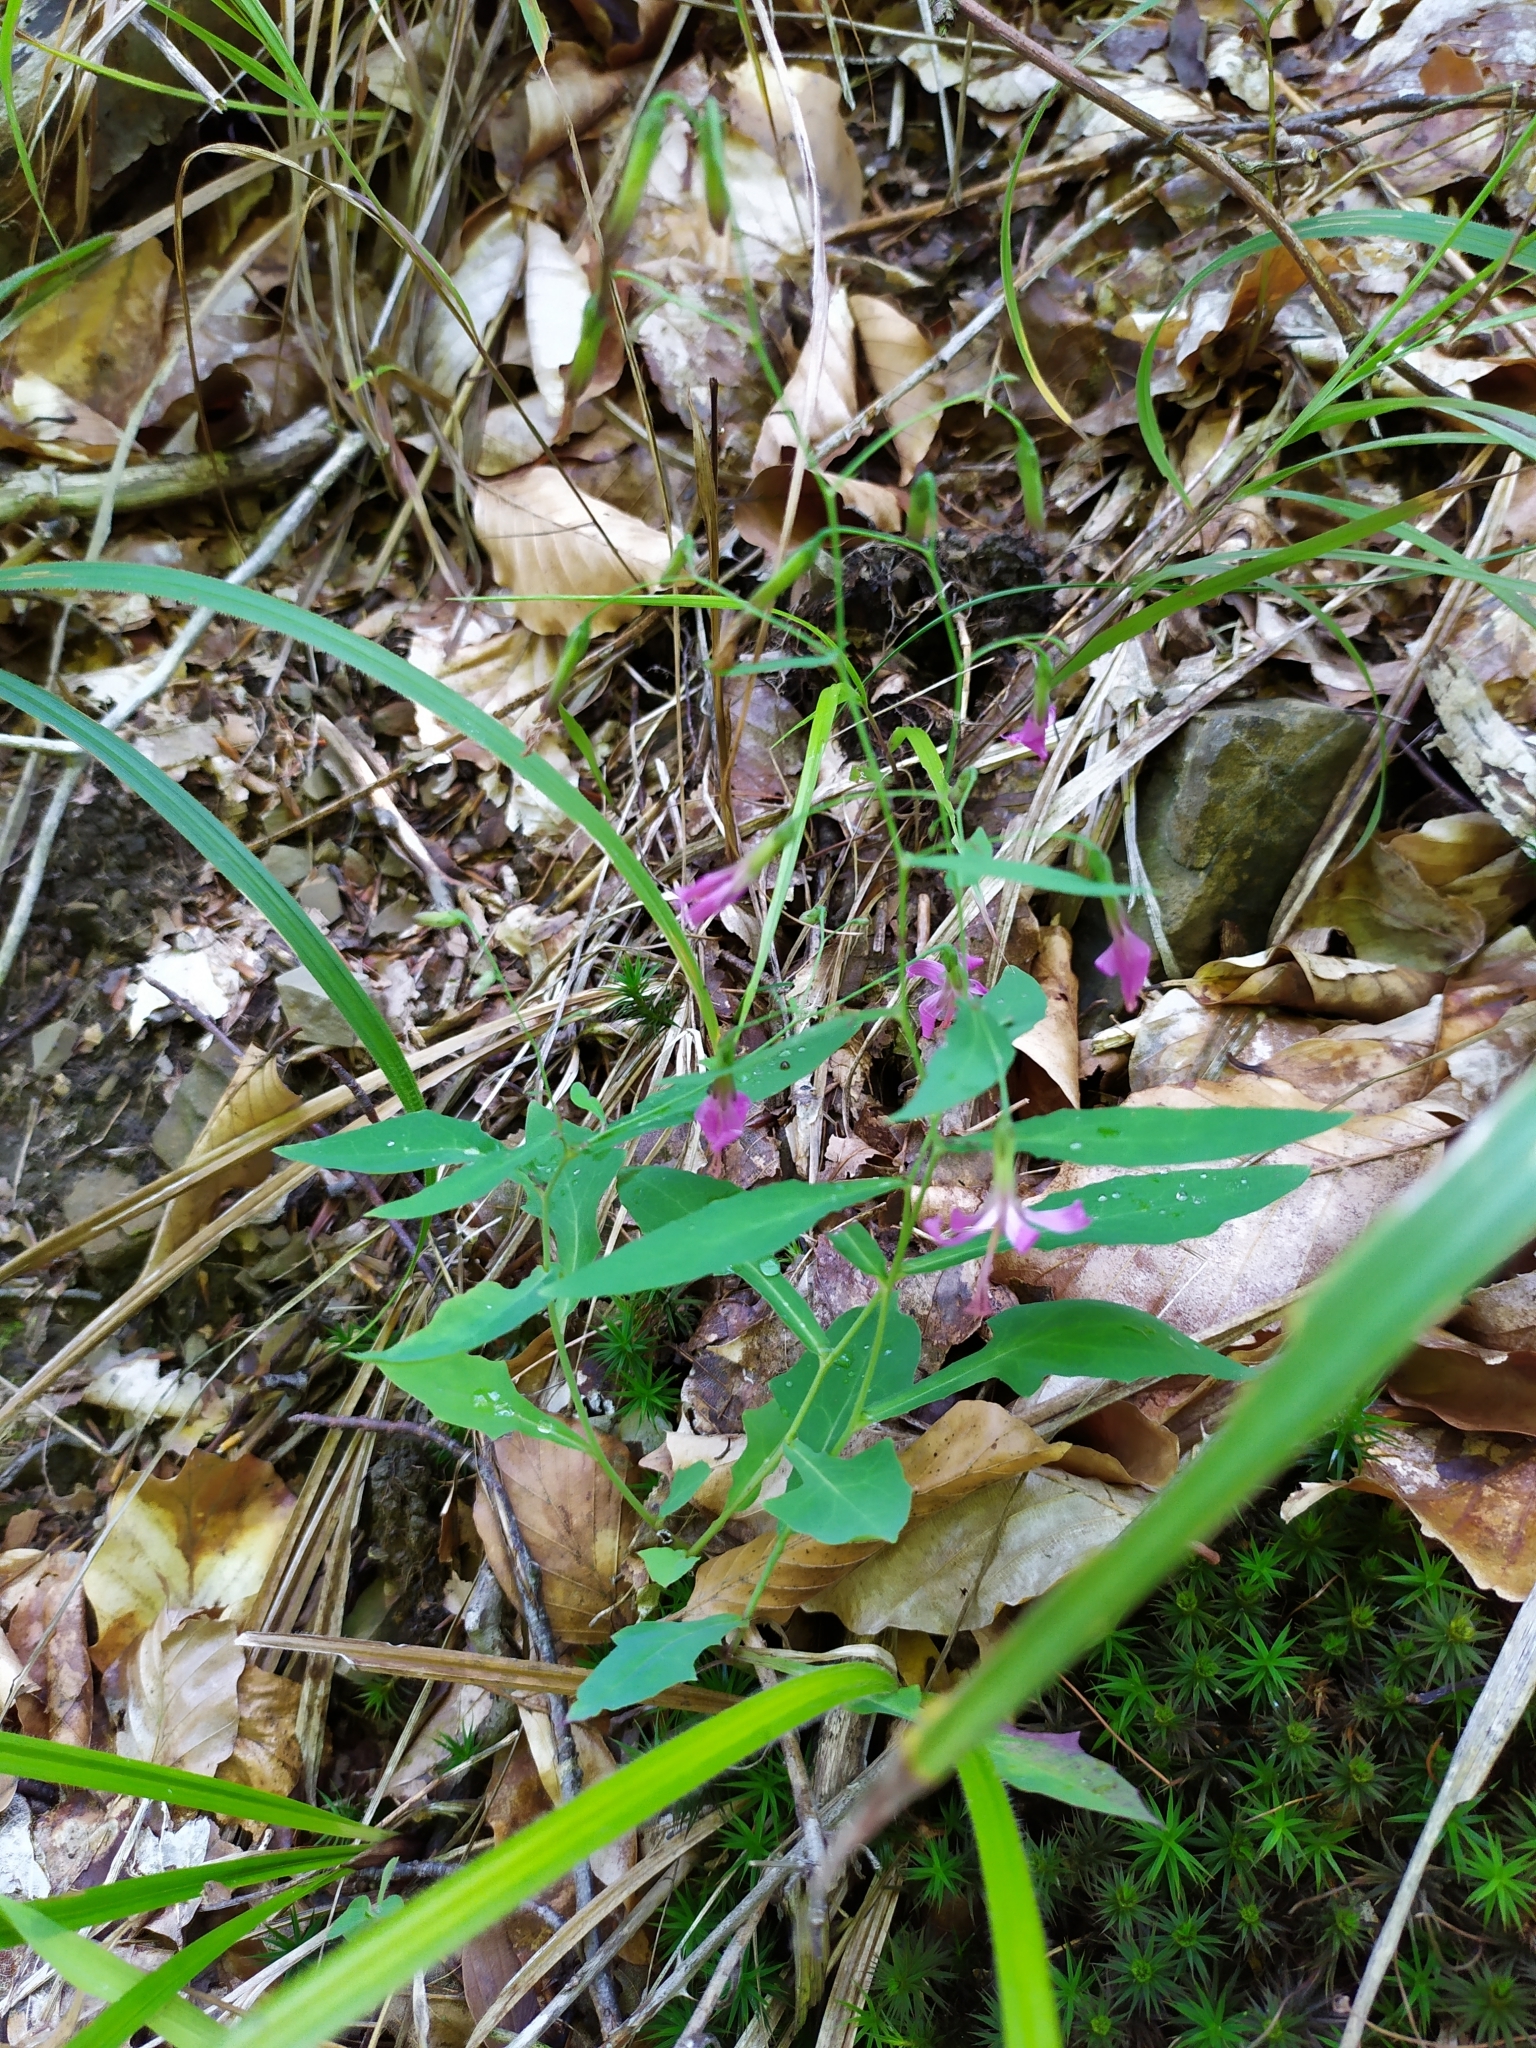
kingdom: Plantae
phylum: Tracheophyta
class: Magnoliopsida
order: Asterales
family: Asteraceae
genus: Prenanthes
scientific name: Prenanthes purpurea
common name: Purple lettuce
